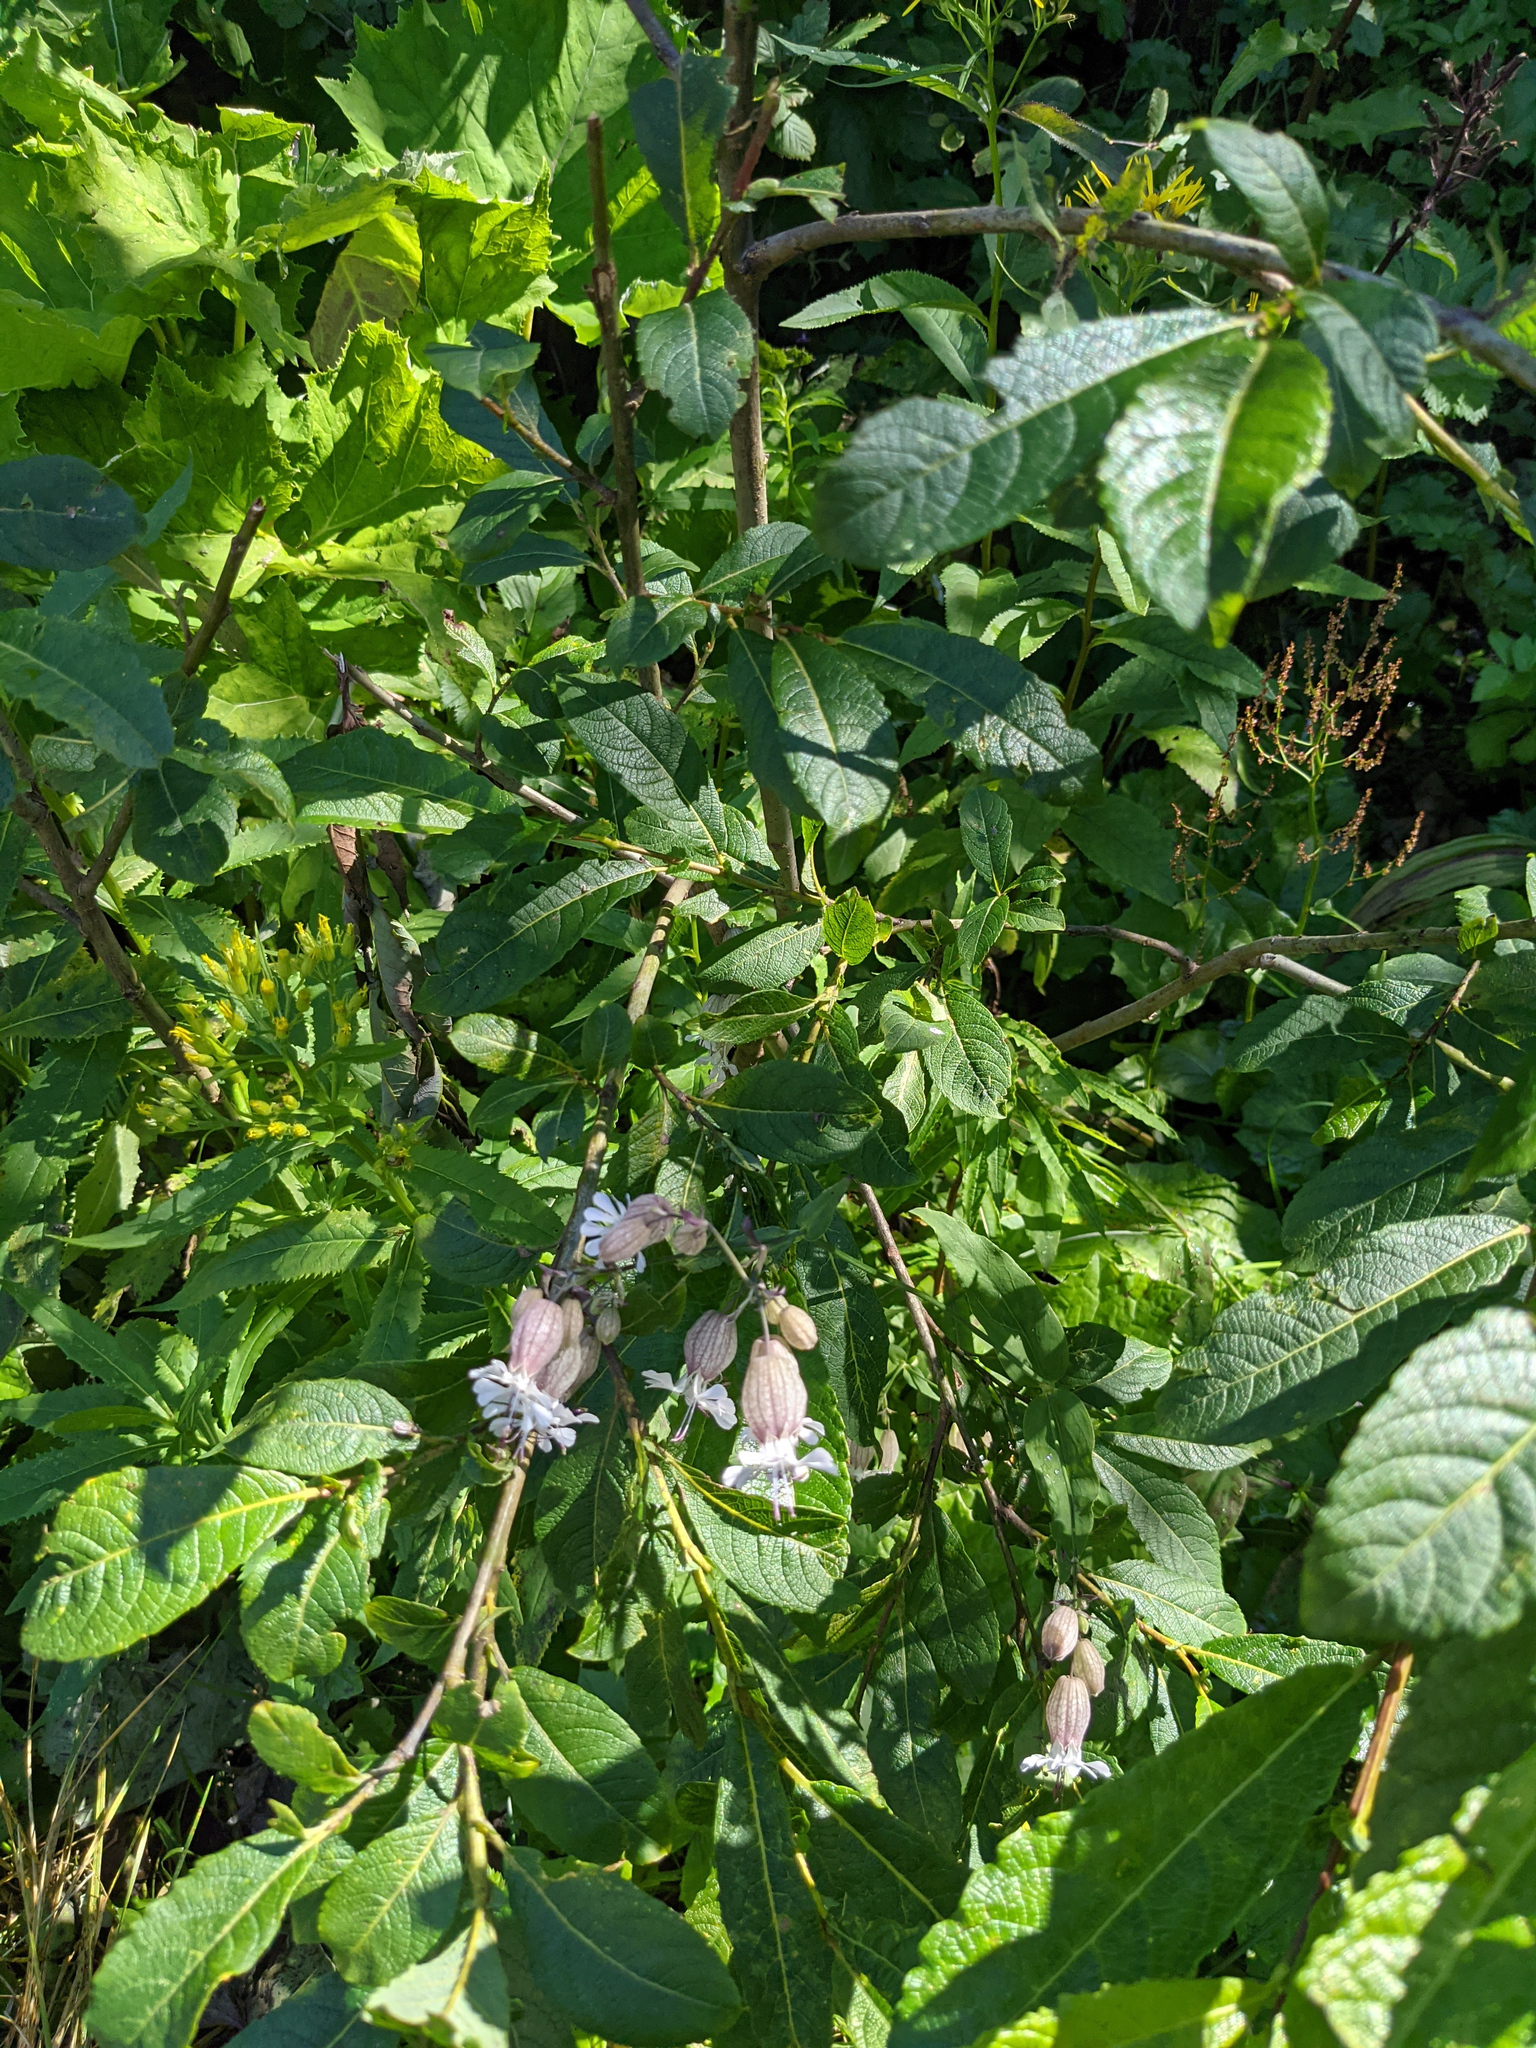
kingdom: Plantae
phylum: Tracheophyta
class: Magnoliopsida
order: Caryophyllales
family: Caryophyllaceae
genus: Silene
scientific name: Silene vulgaris
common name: Bladder campion
